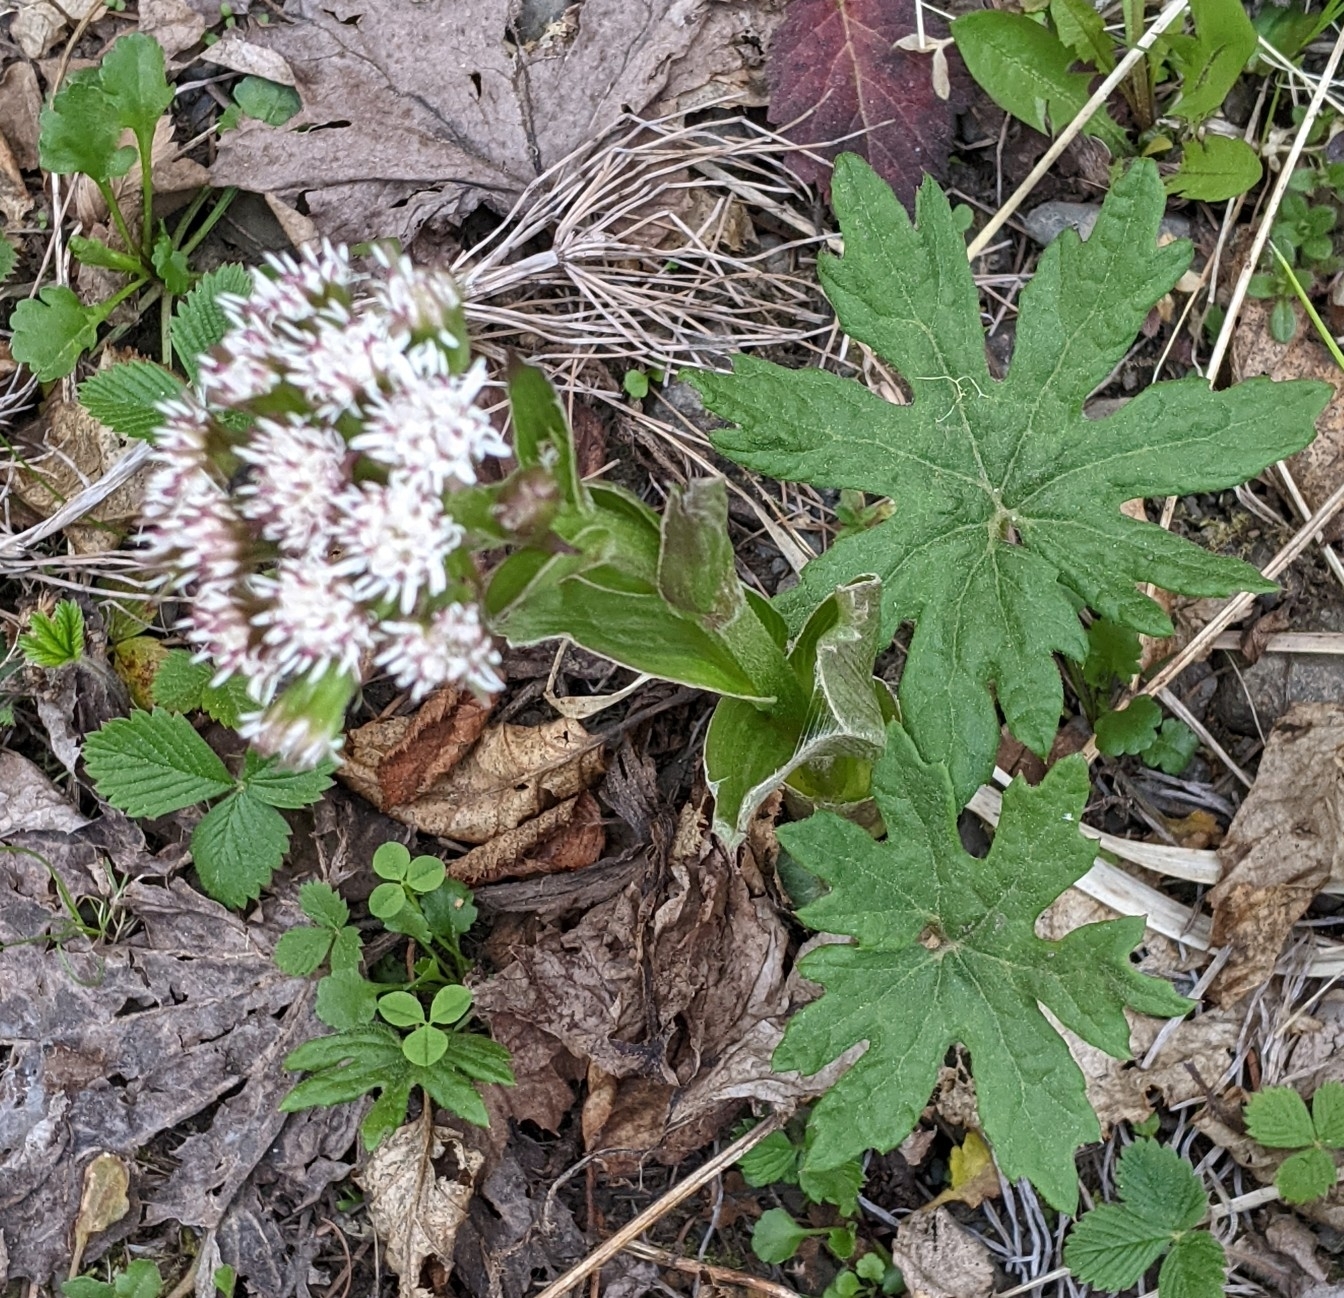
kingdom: Plantae
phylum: Tracheophyta
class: Magnoliopsida
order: Asterales
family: Asteraceae
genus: Petasites
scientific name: Petasites frigidus
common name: Arctic butterbur
